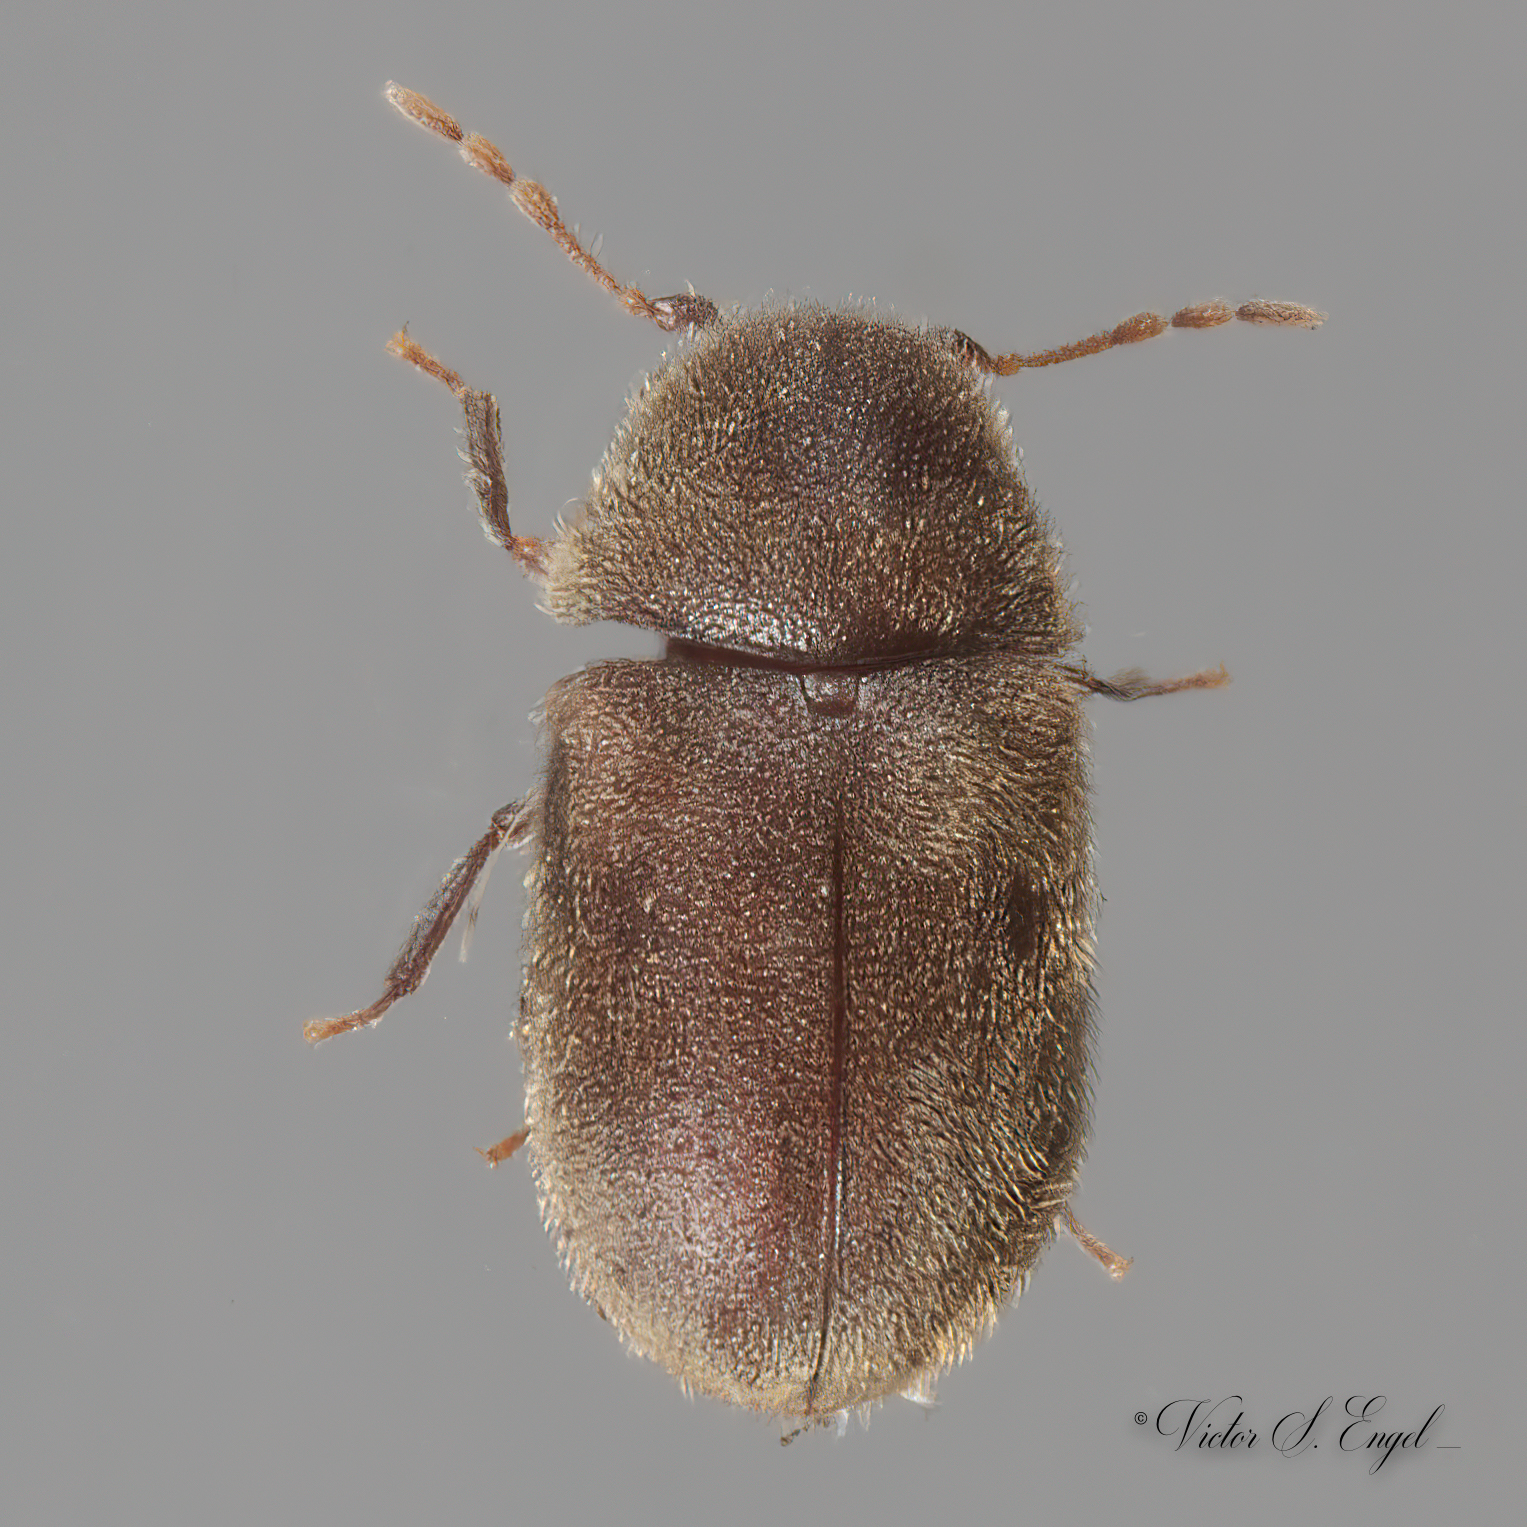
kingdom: Animalia
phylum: Arthropoda
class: Insecta
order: Coleoptera
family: Anobiidae
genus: Protheca
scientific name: Protheca hispida
